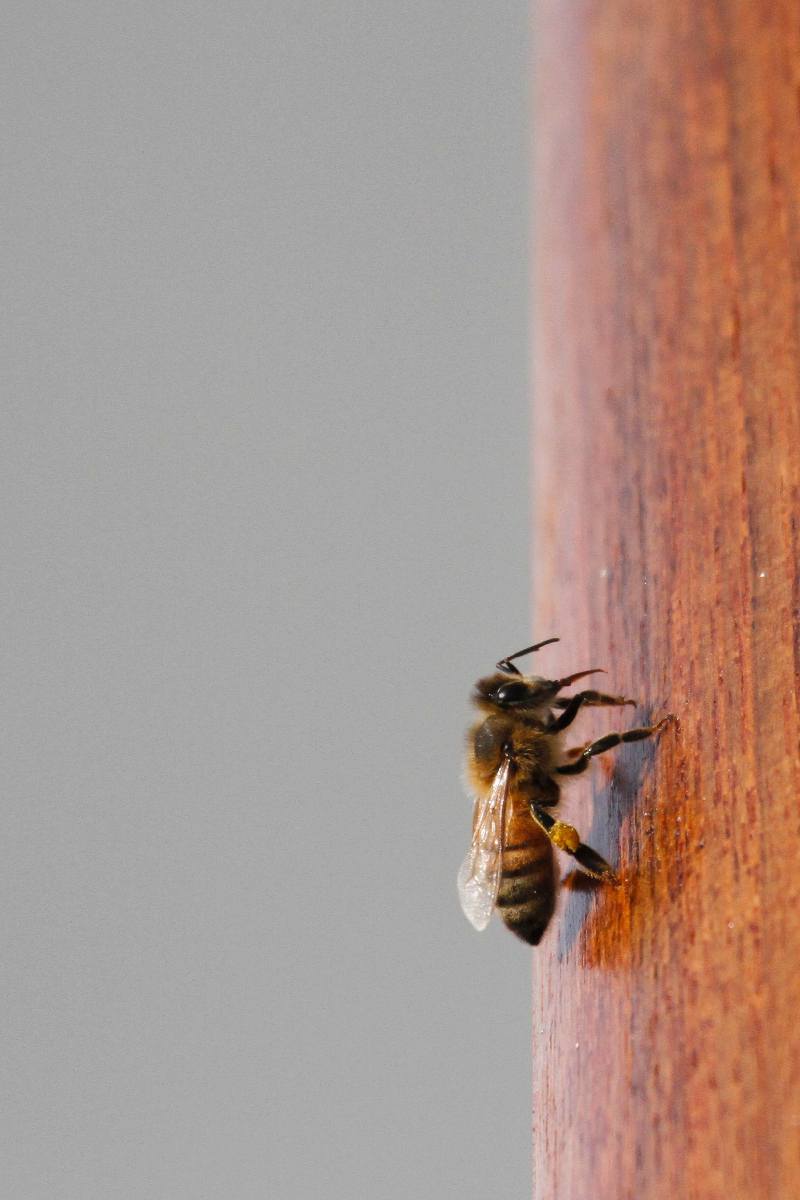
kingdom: Animalia
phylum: Arthropoda
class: Insecta
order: Hymenoptera
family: Apidae
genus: Apis
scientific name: Apis mellifera
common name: Honey bee
